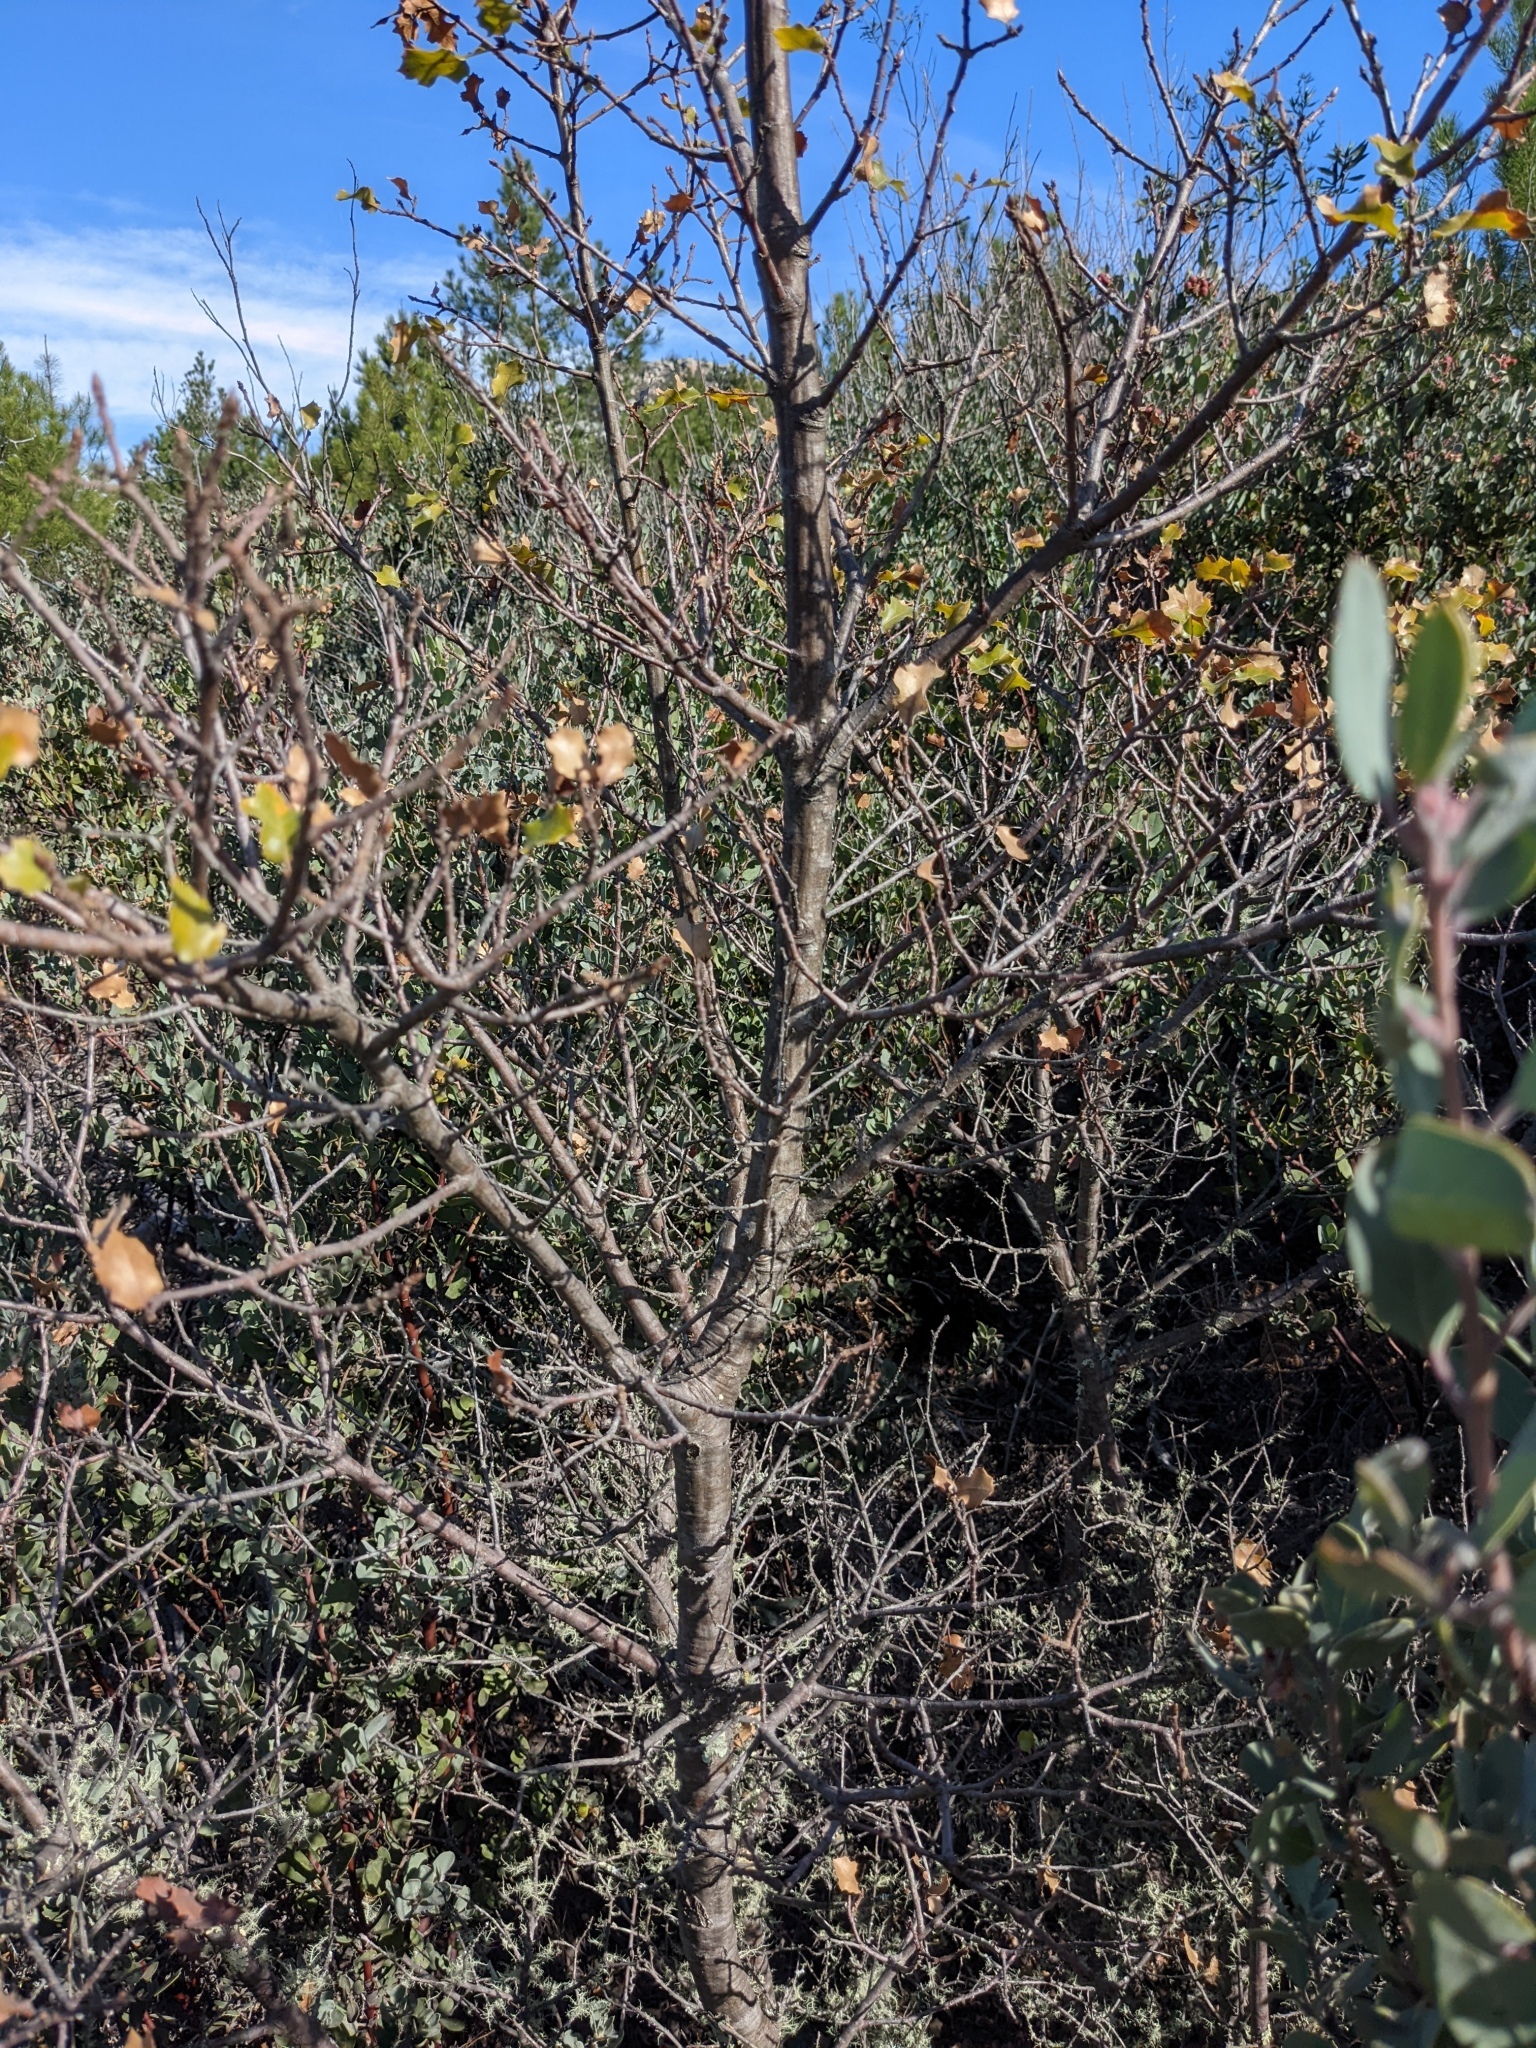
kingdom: Plantae
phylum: Tracheophyta
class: Magnoliopsida
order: Fagales
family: Fagaceae
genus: Quercus
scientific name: Quercus ganderi
